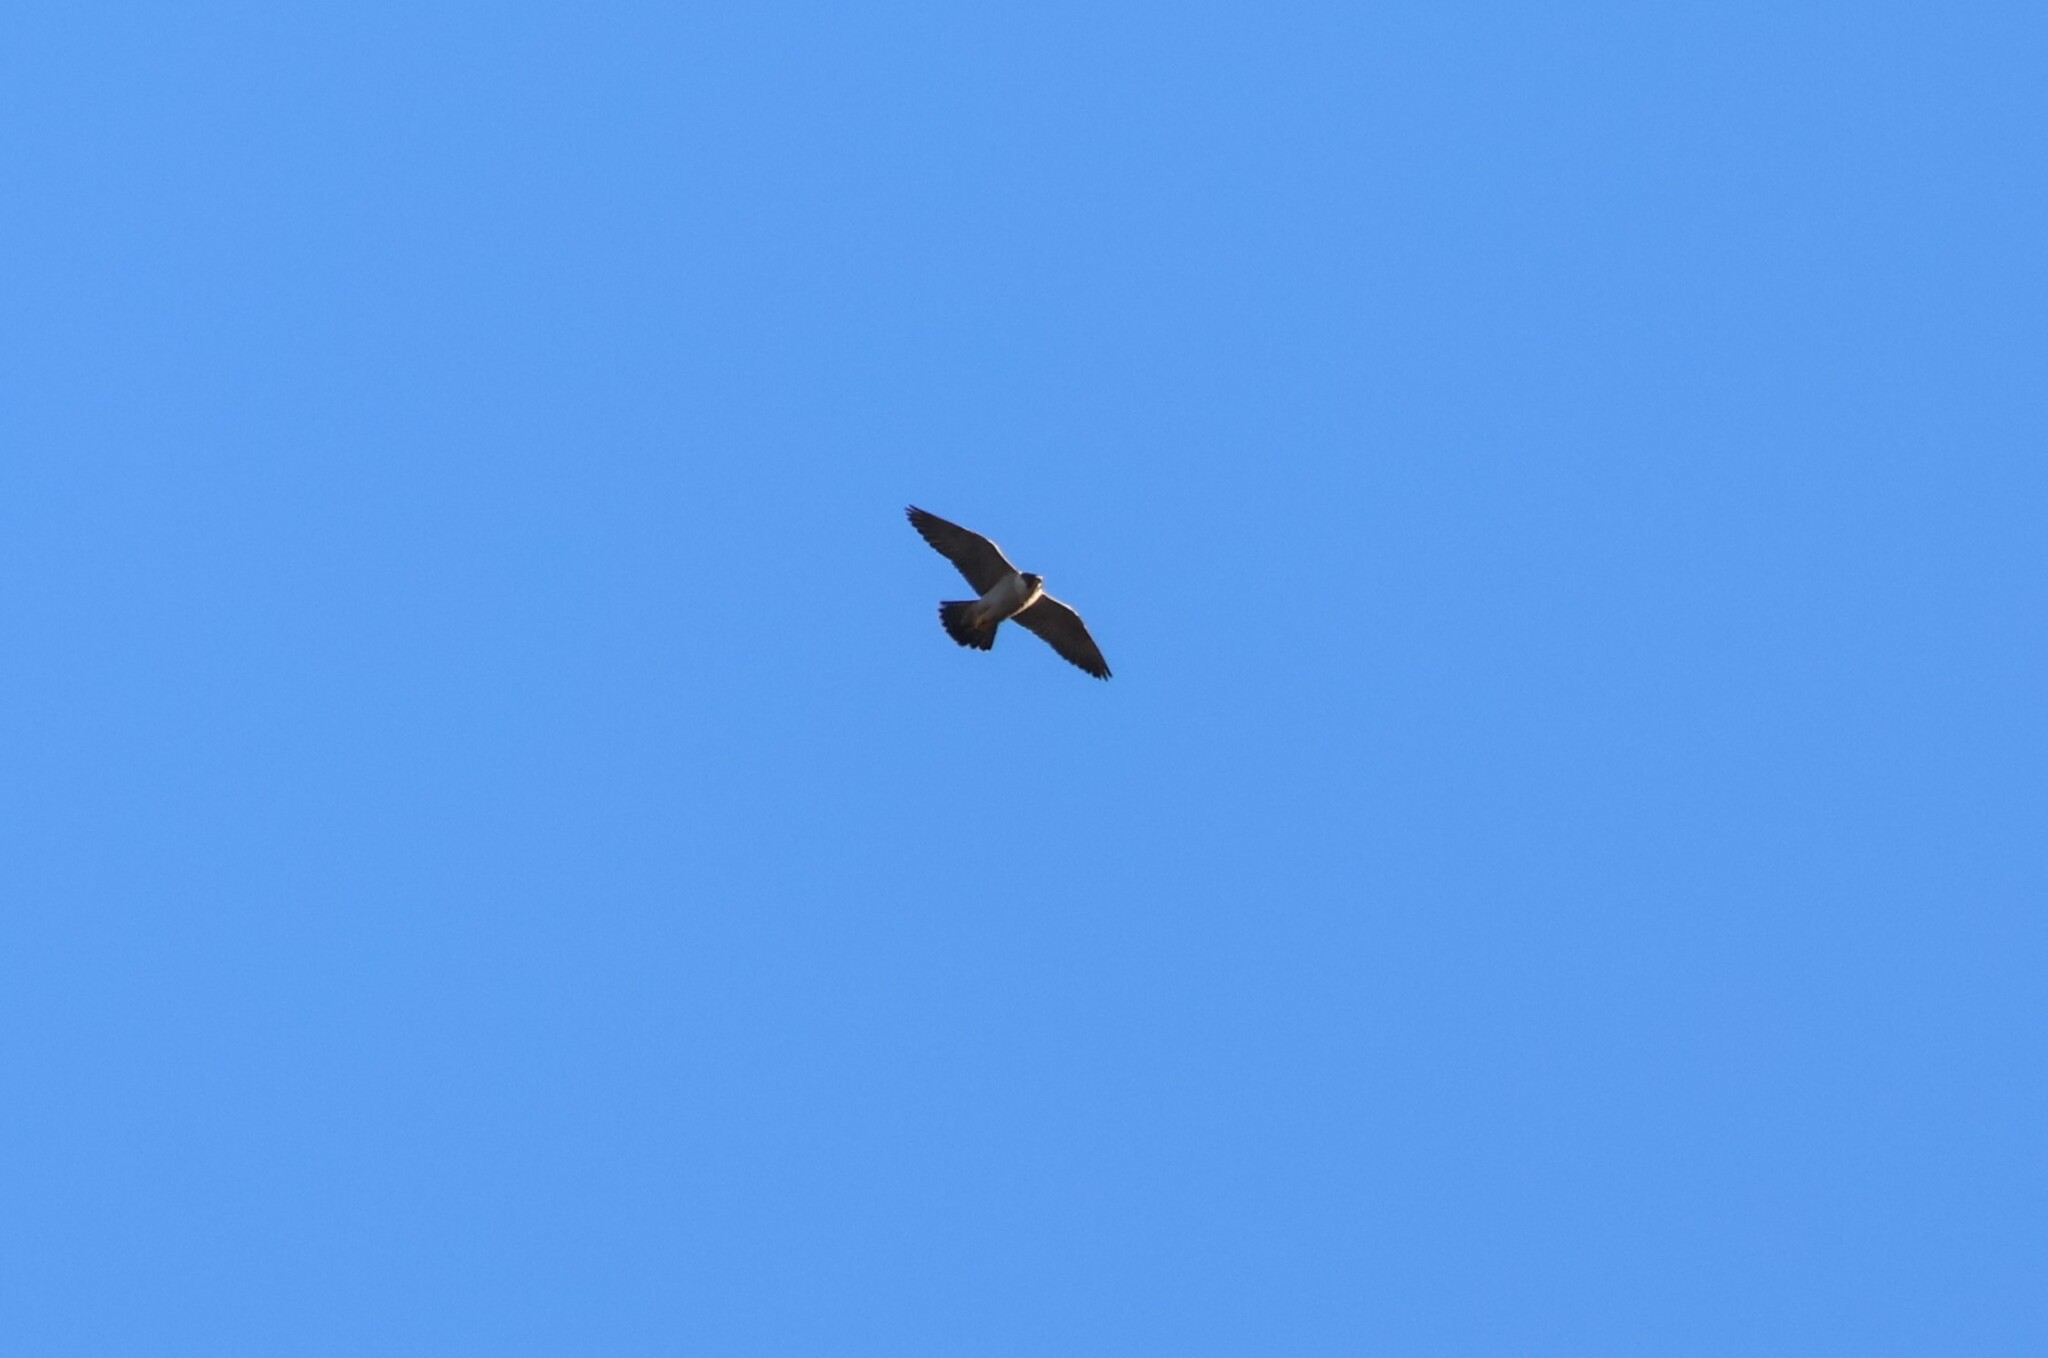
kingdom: Animalia
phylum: Chordata
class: Aves
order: Falconiformes
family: Falconidae
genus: Falco
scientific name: Falco peregrinus
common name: Peregrine falcon
